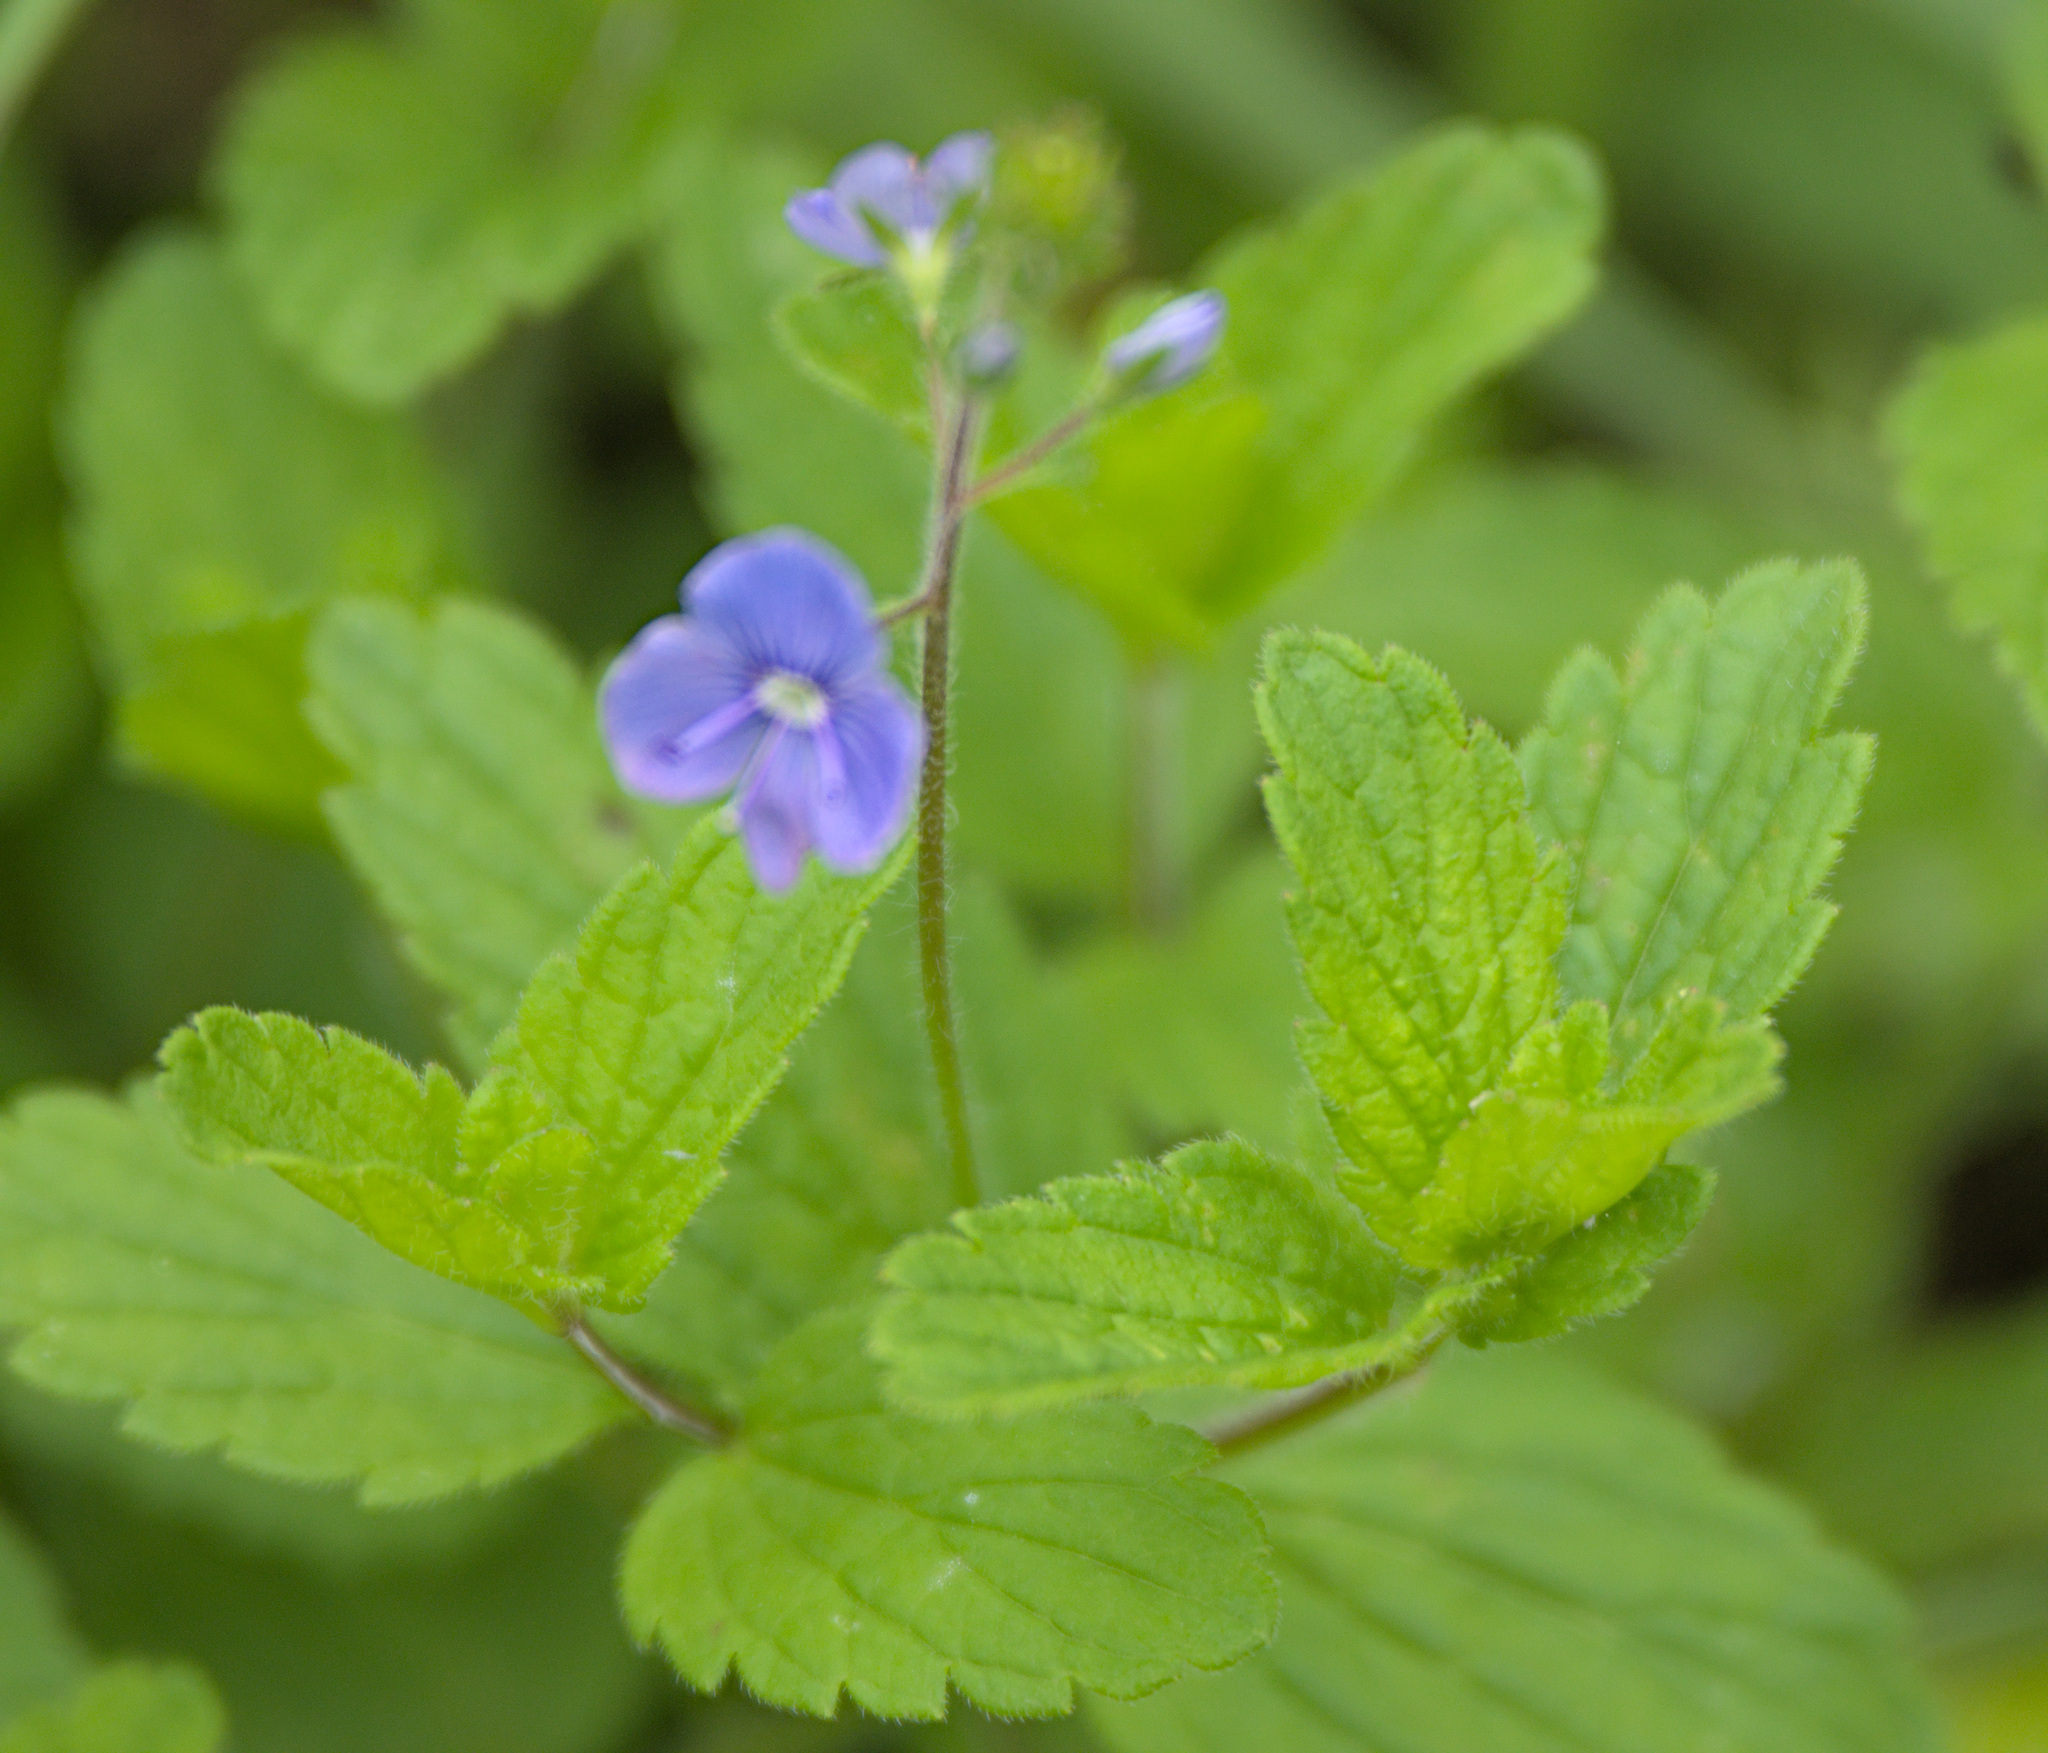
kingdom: Plantae
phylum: Tracheophyta
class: Magnoliopsida
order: Lamiales
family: Plantaginaceae
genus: Veronica
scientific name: Veronica chamaedrys
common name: Germander speedwell
